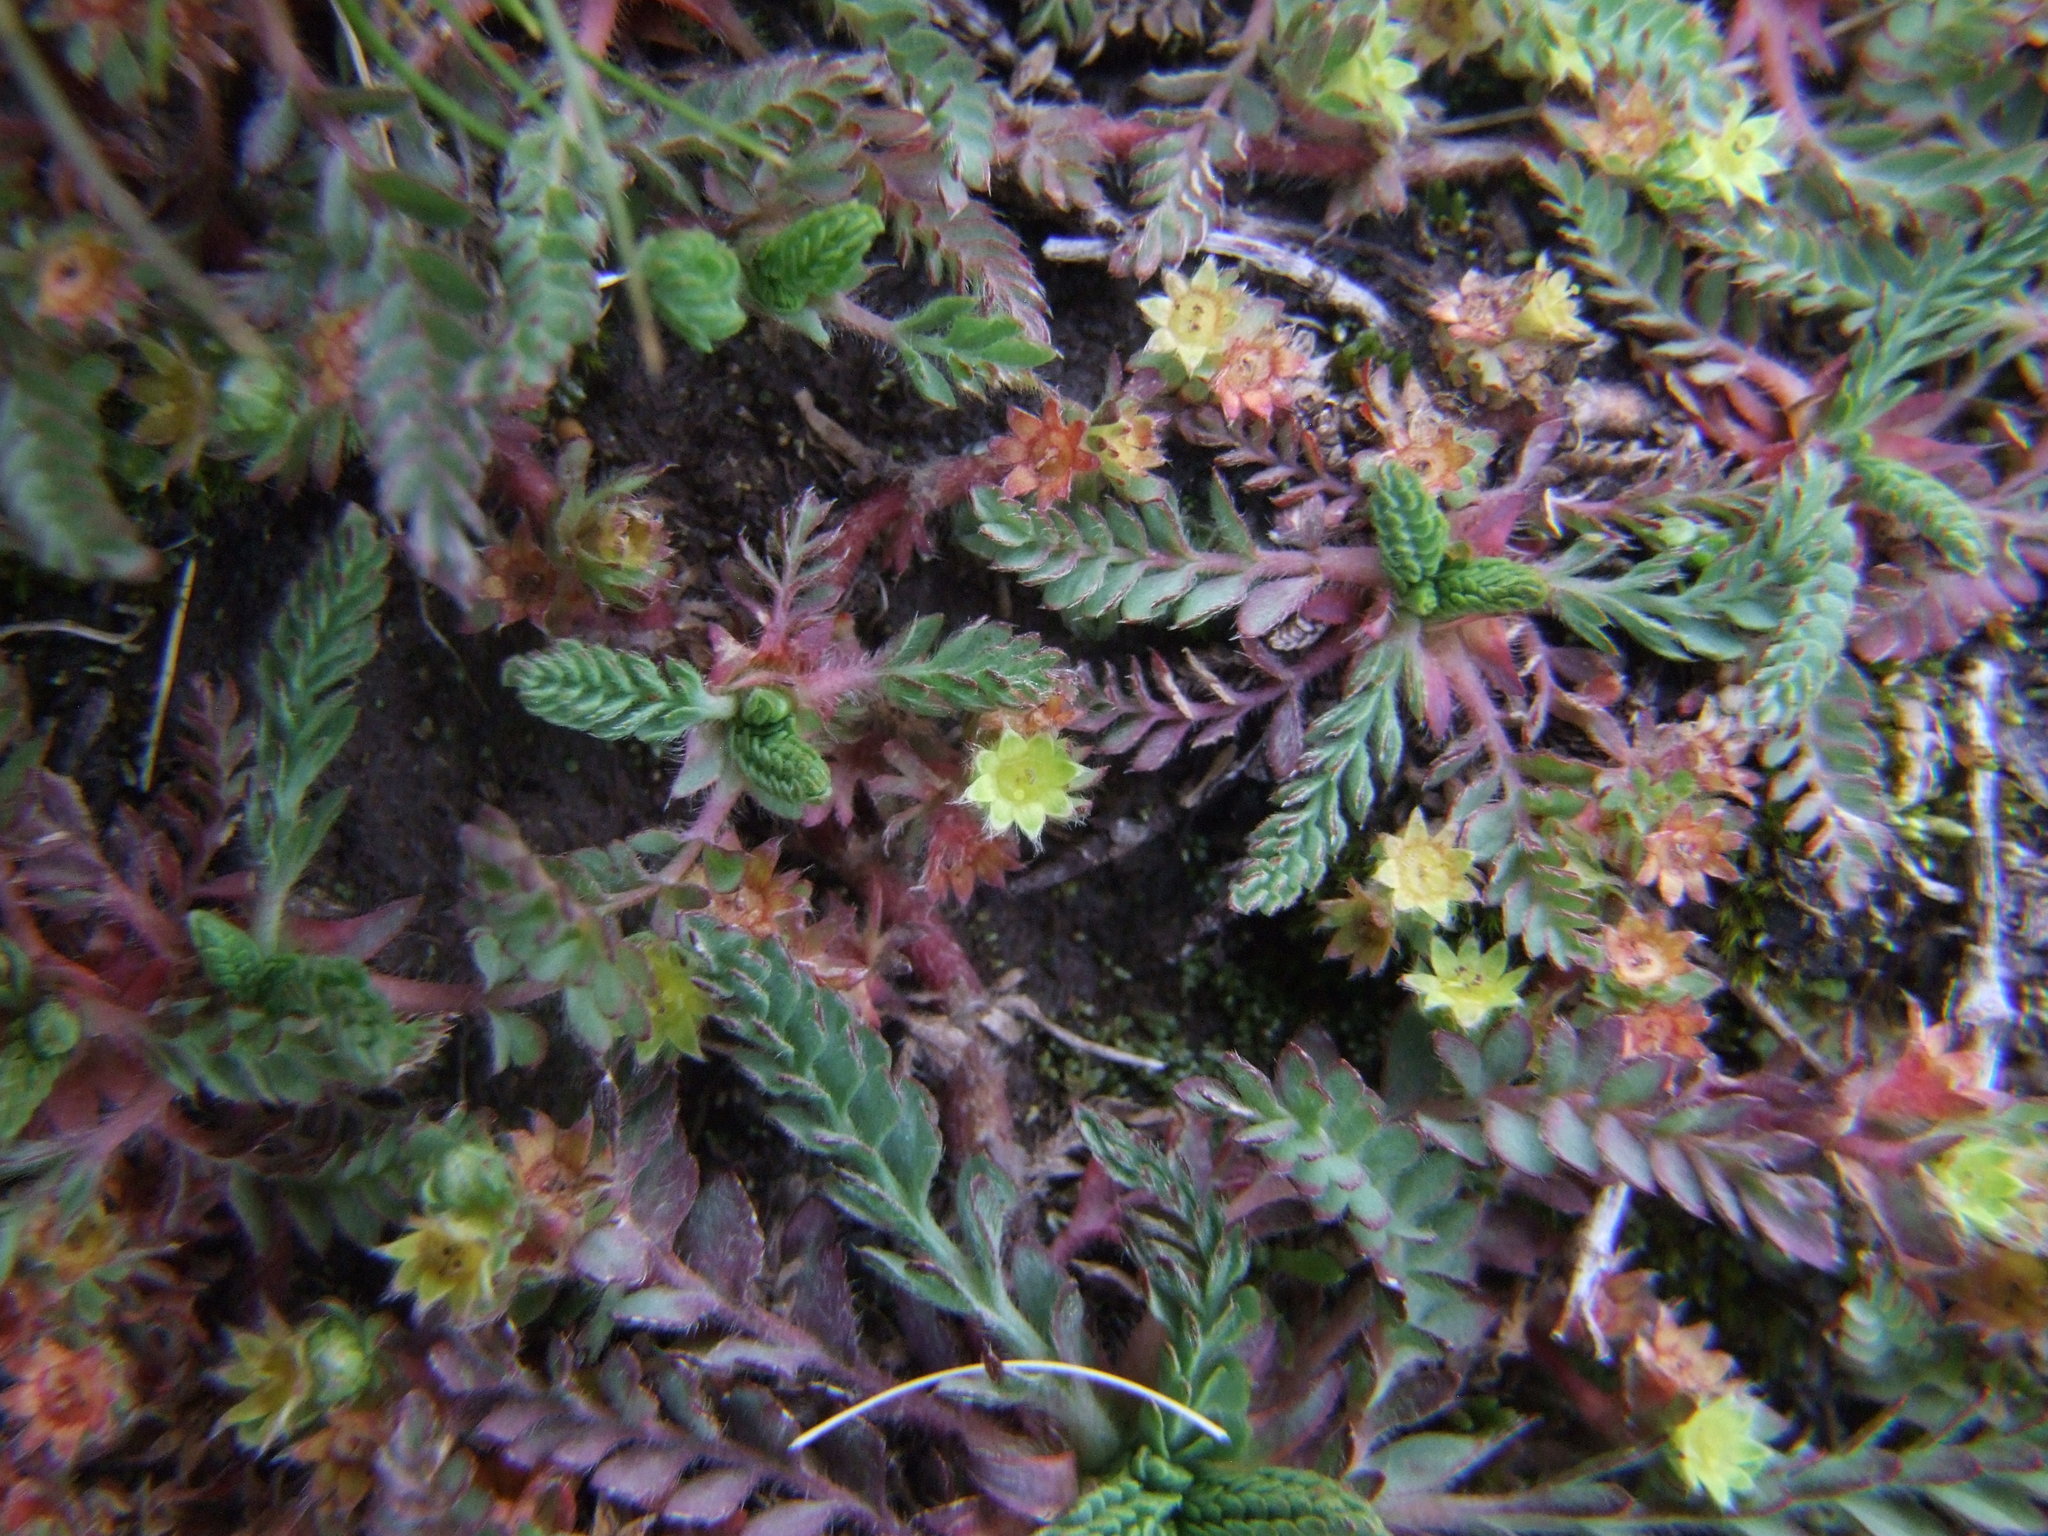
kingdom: Plantae
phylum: Tracheophyta
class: Magnoliopsida
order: Rosales
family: Rosaceae
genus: Lachemilla
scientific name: Lachemilla
